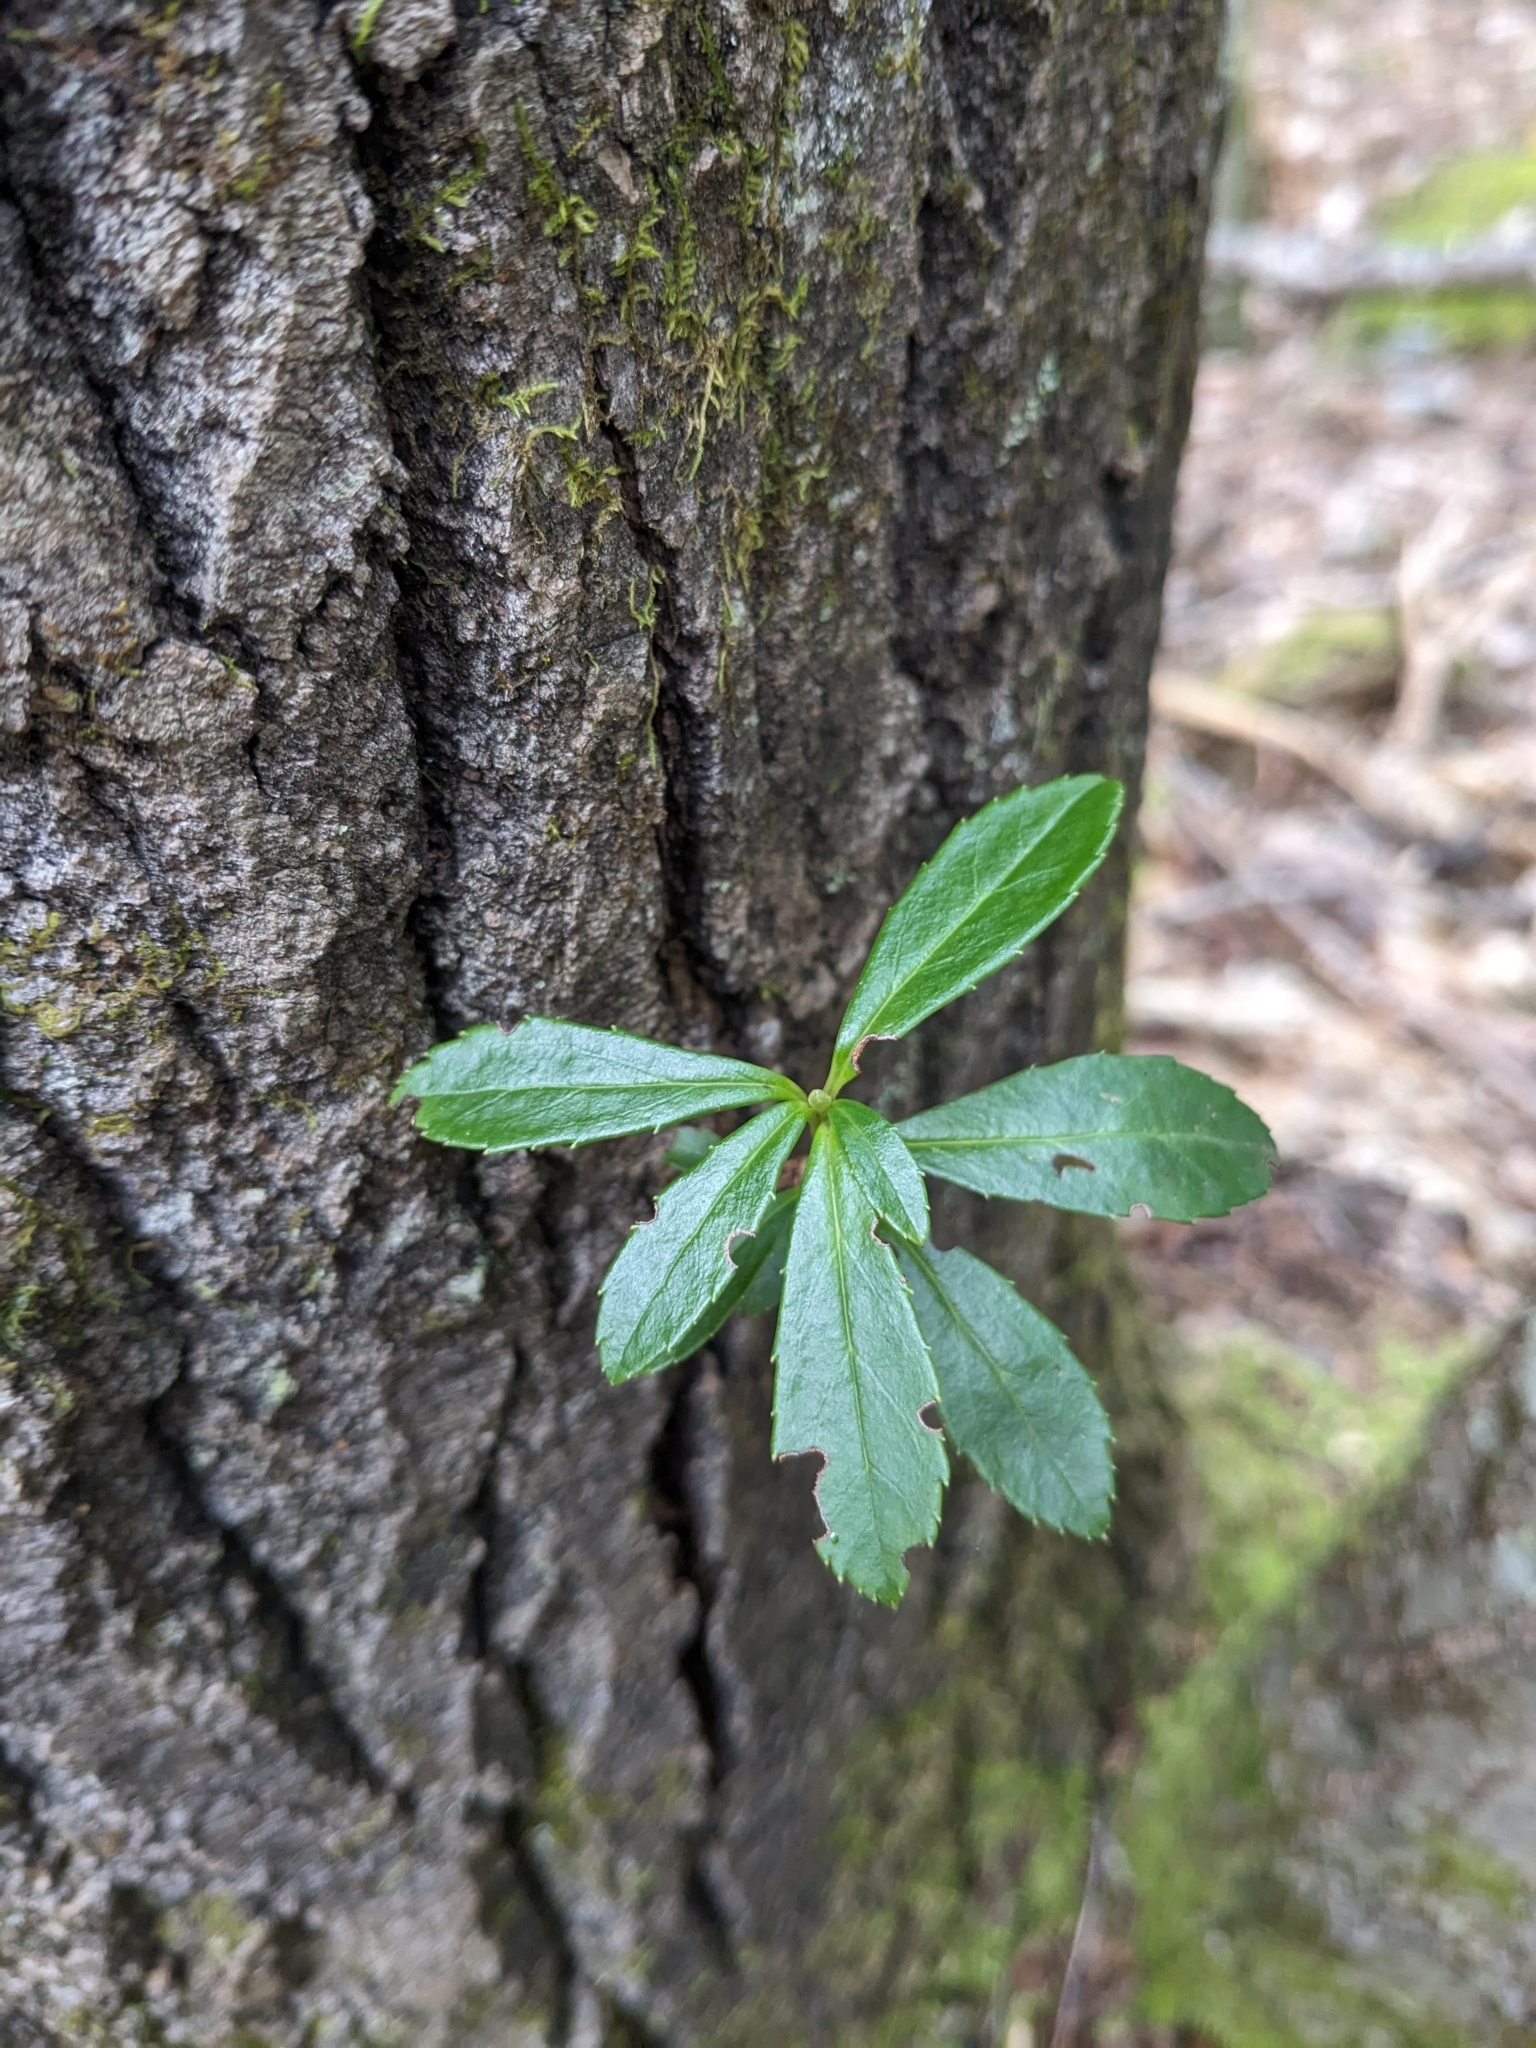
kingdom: Plantae
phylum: Tracheophyta
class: Magnoliopsida
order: Ericales
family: Ericaceae
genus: Chimaphila
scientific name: Chimaphila umbellata
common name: Pipsissewa
